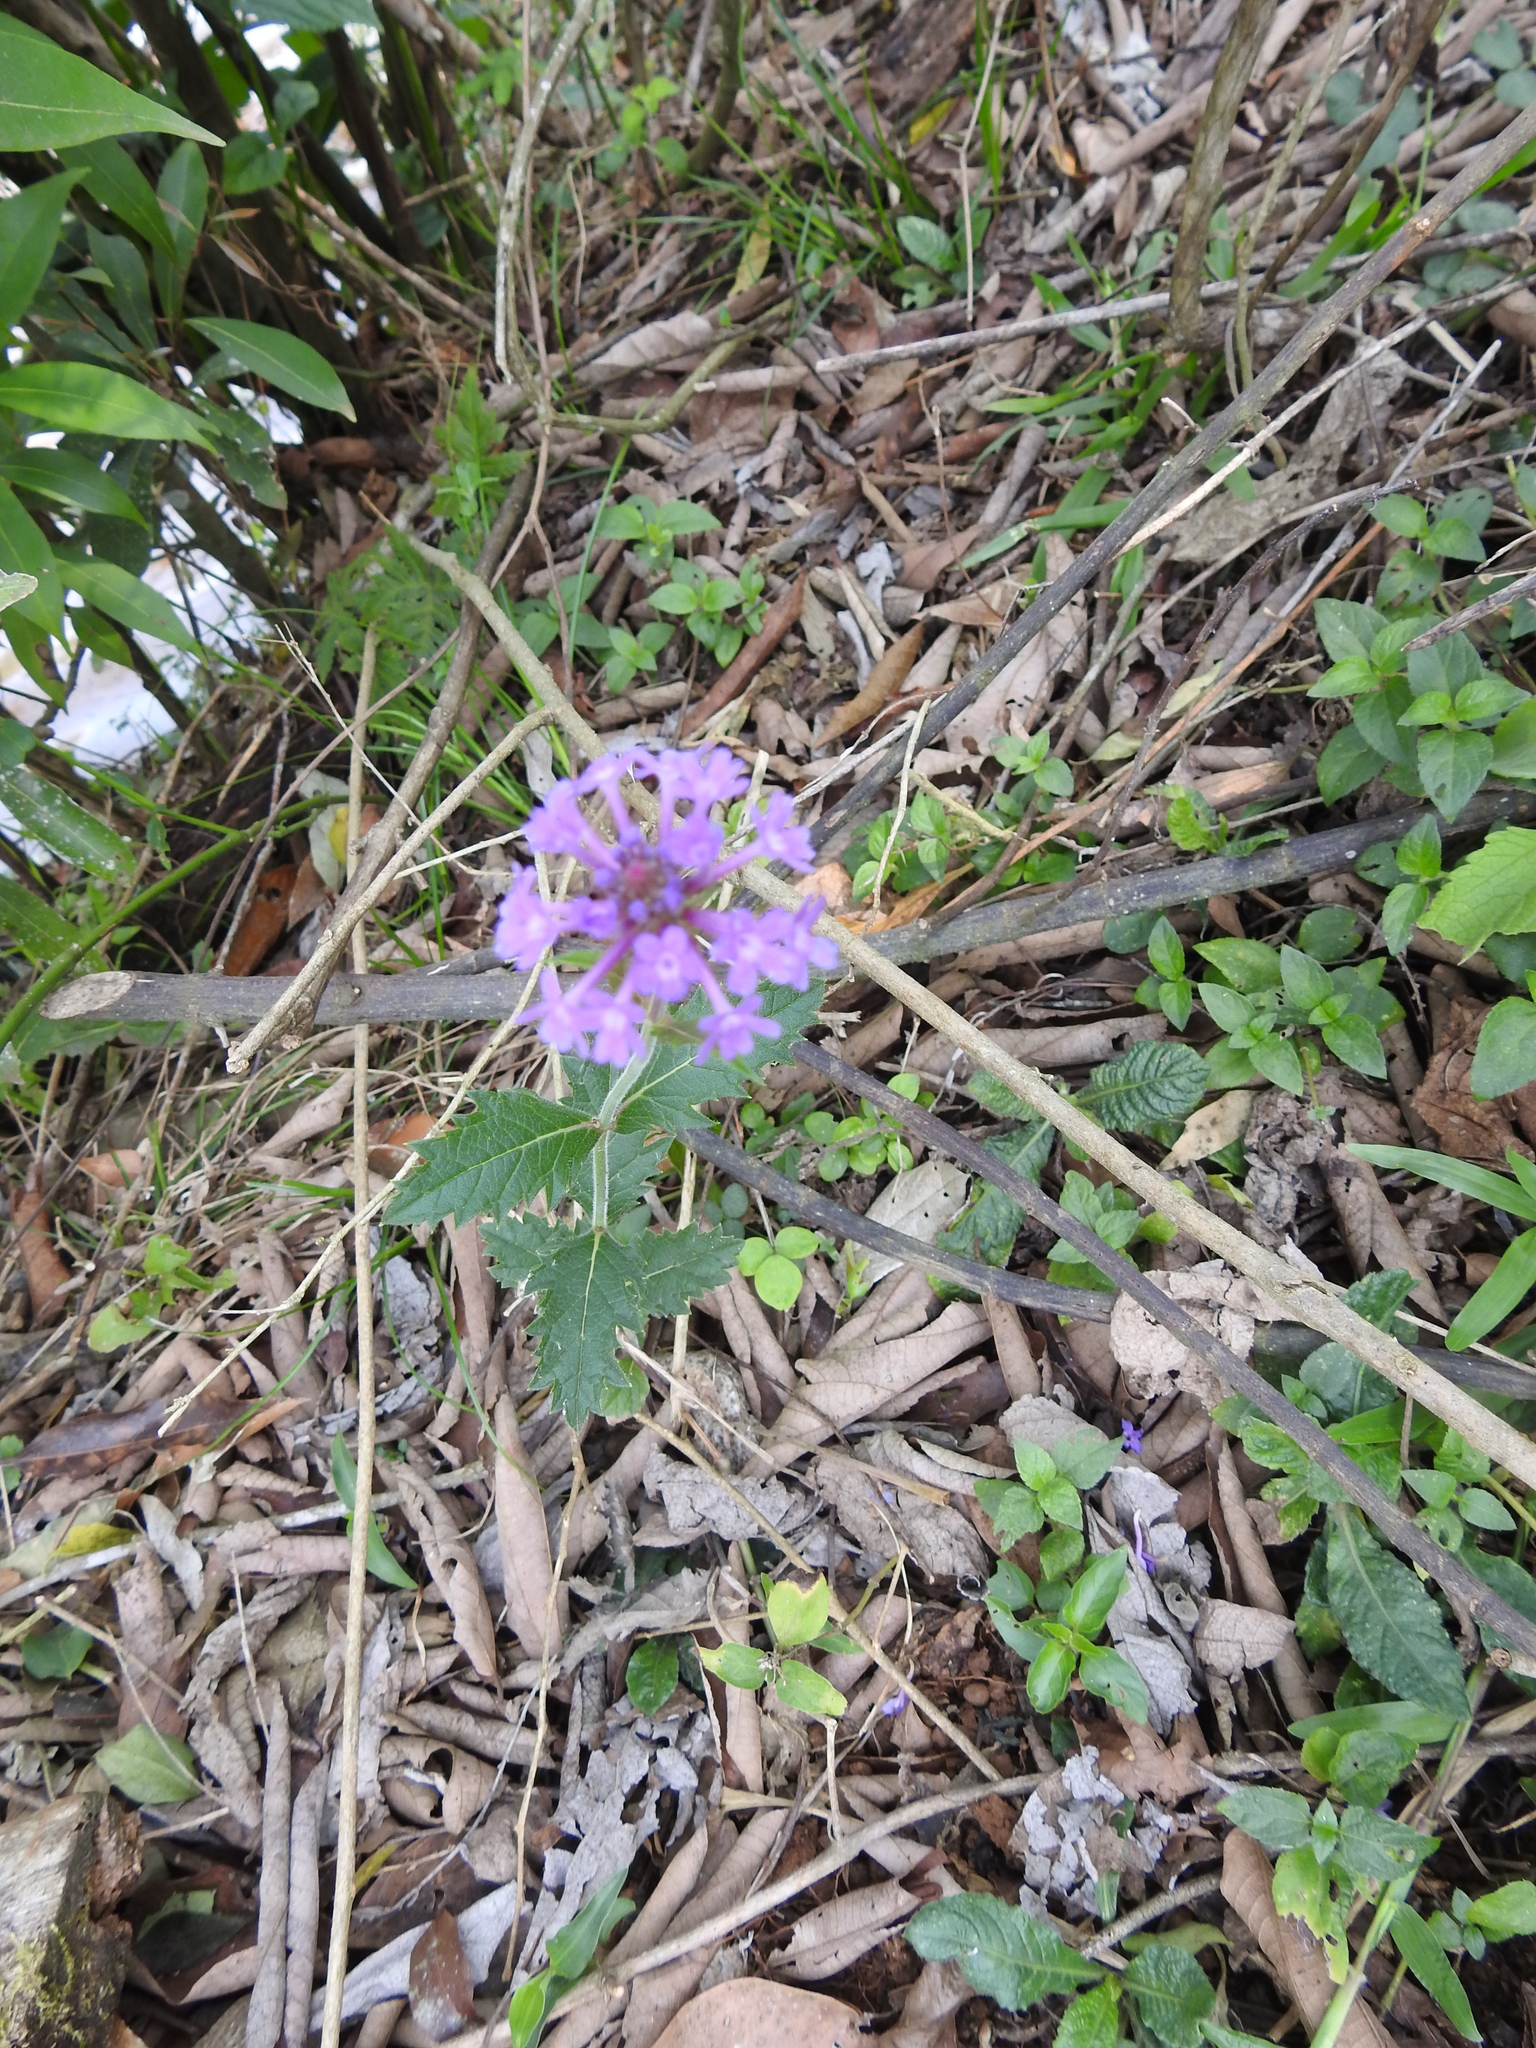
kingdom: Plantae
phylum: Tracheophyta
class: Magnoliopsida
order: Lamiales
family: Verbenaceae
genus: Verbena
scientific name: Verbena rigida
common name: Slender vervain
